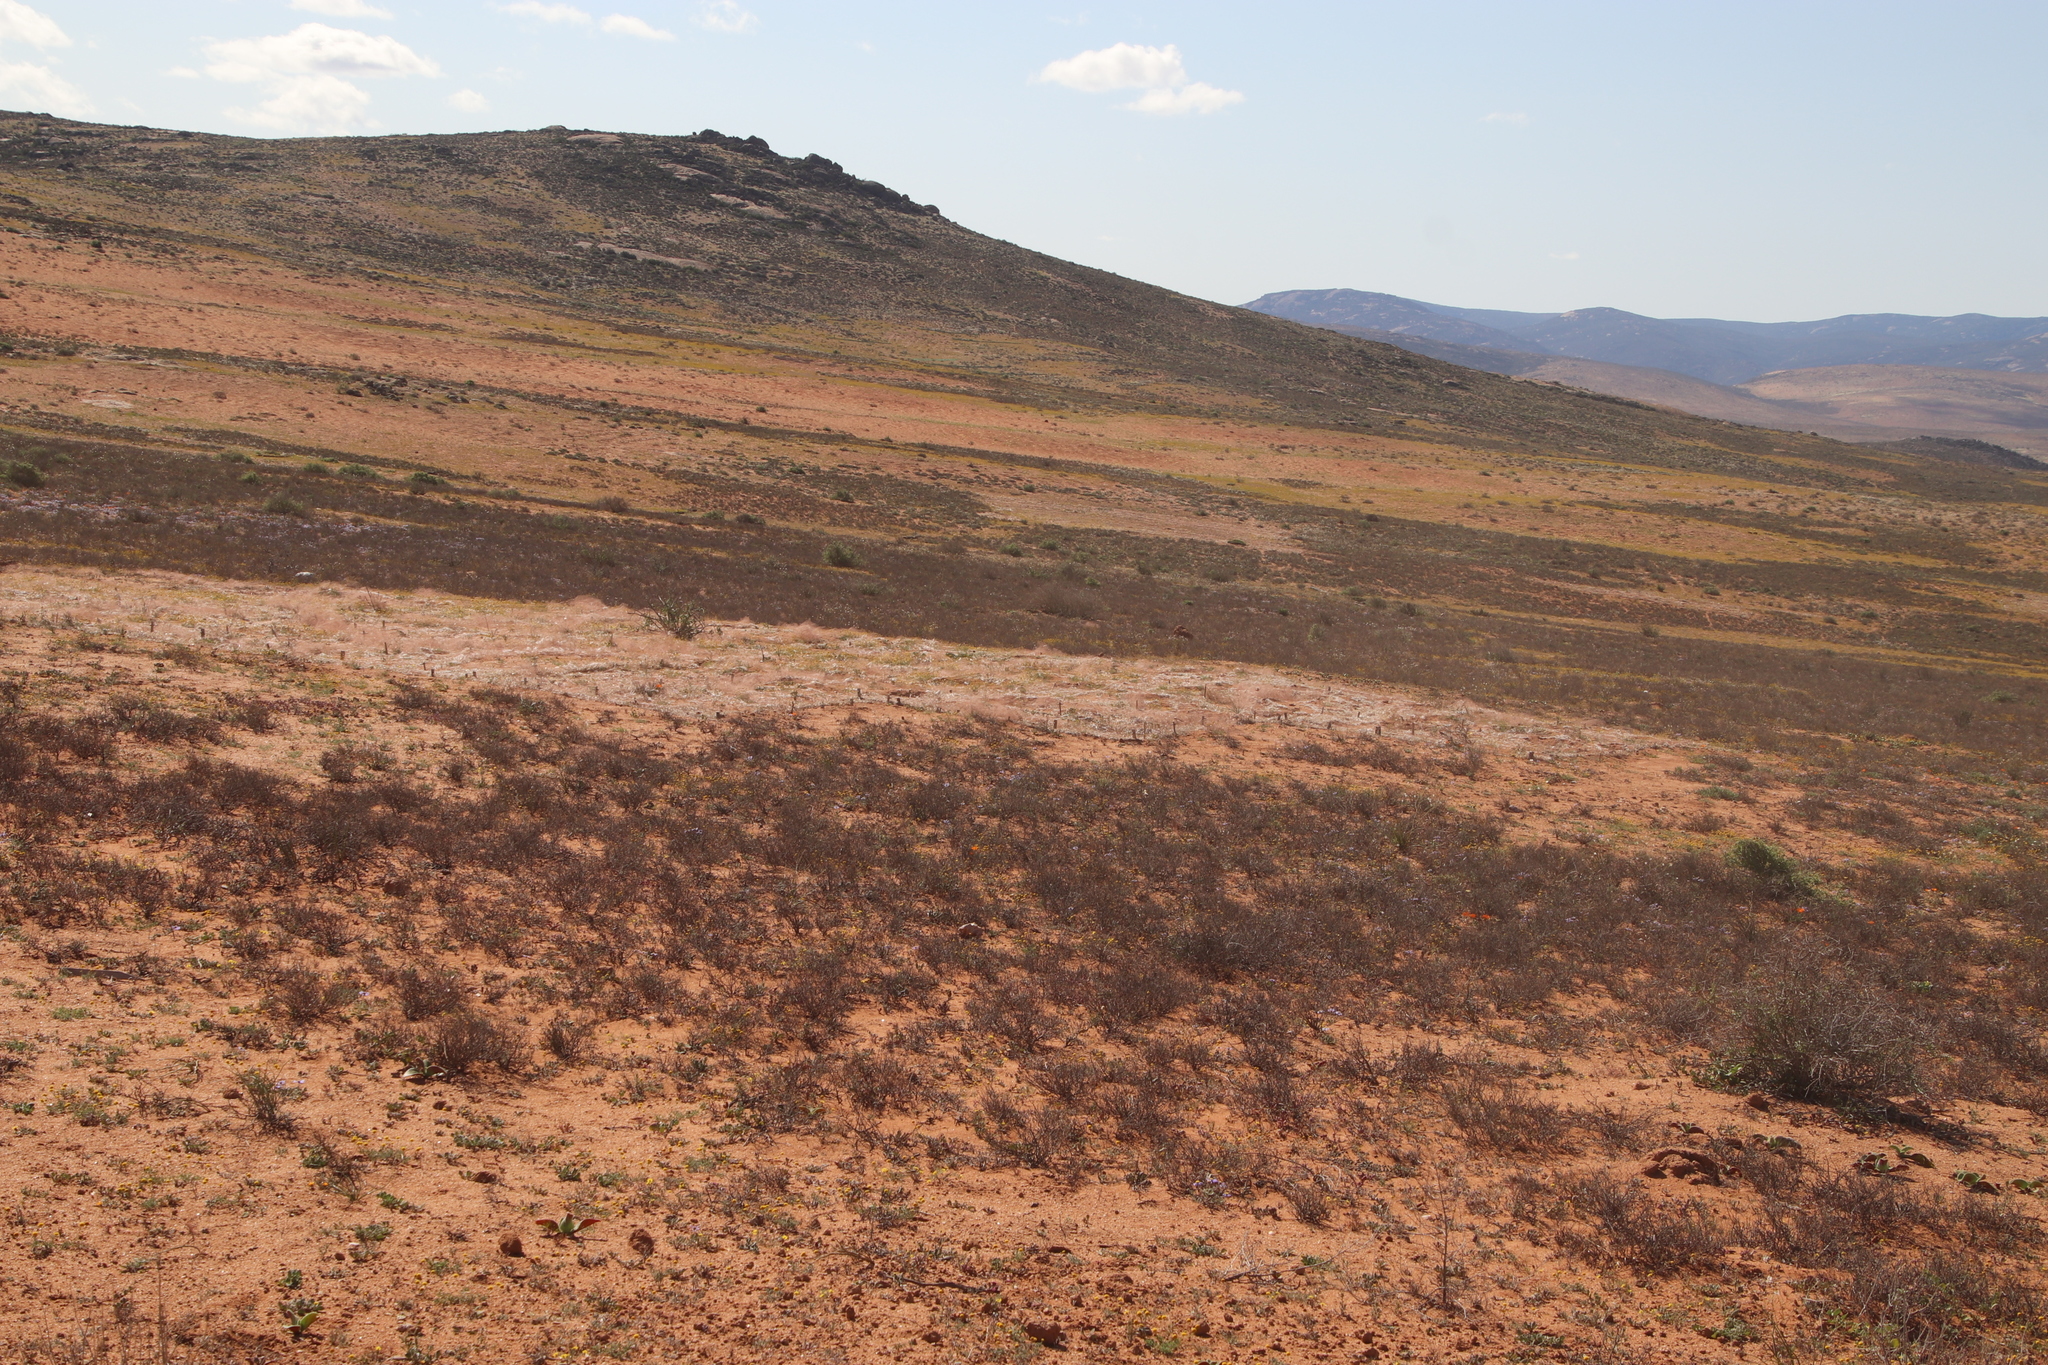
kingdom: Animalia
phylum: Arthropoda
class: Insecta
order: Blattodea
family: Hodotermitidae
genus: Microhodotermes
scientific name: Microhodotermes viator
